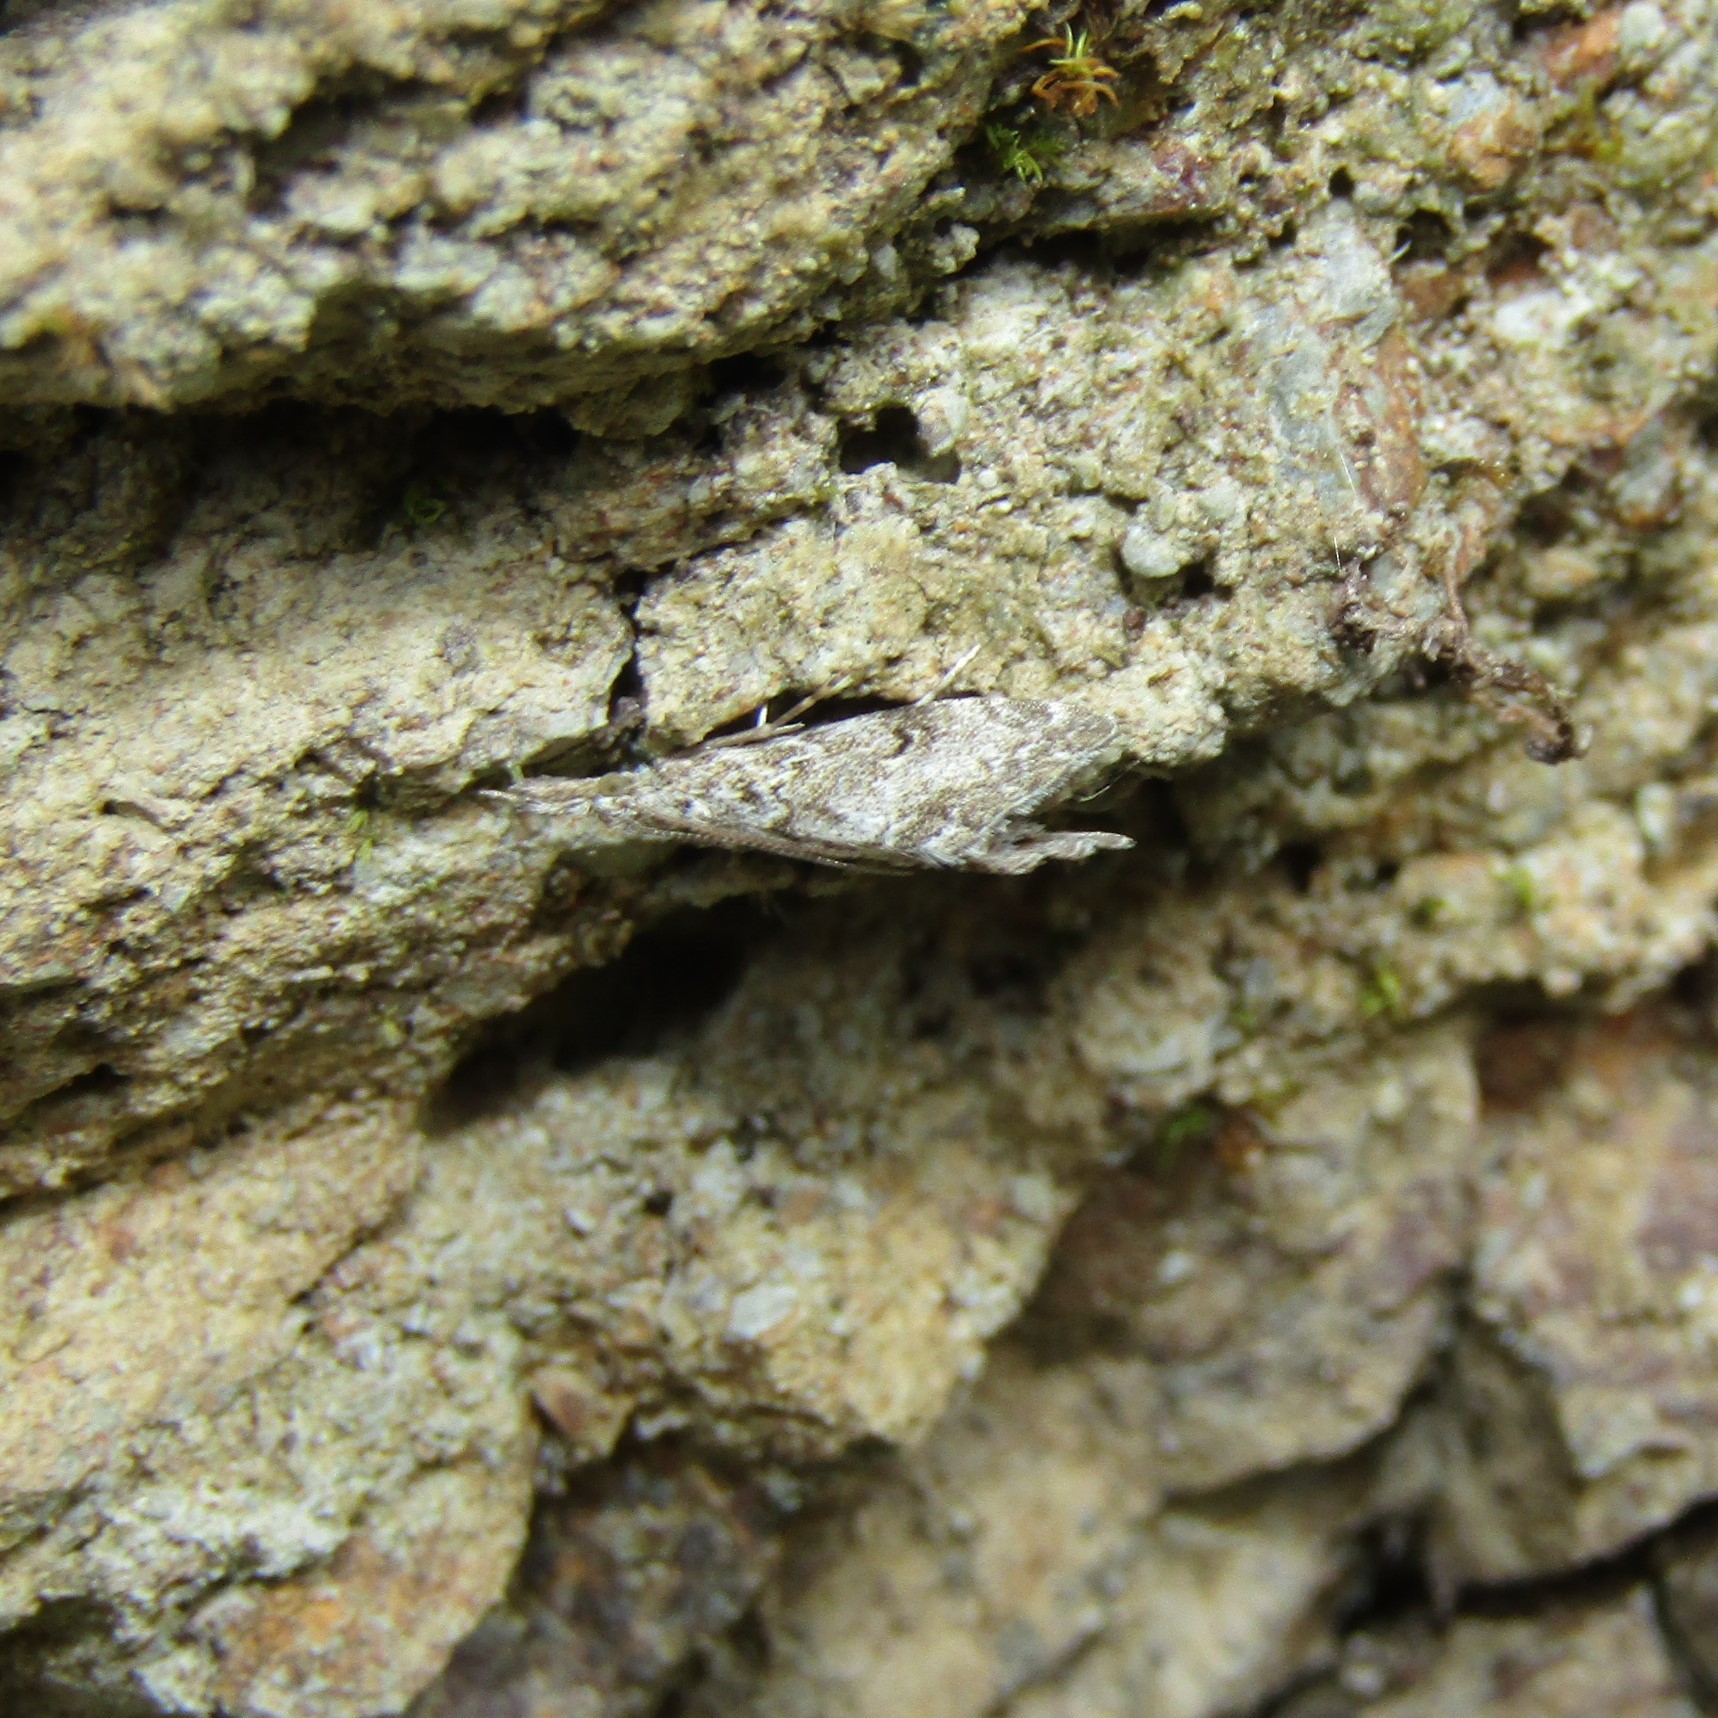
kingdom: Animalia
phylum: Arthropoda
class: Insecta
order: Lepidoptera
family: Crambidae
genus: Glaucocharis
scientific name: Glaucocharis elaina
